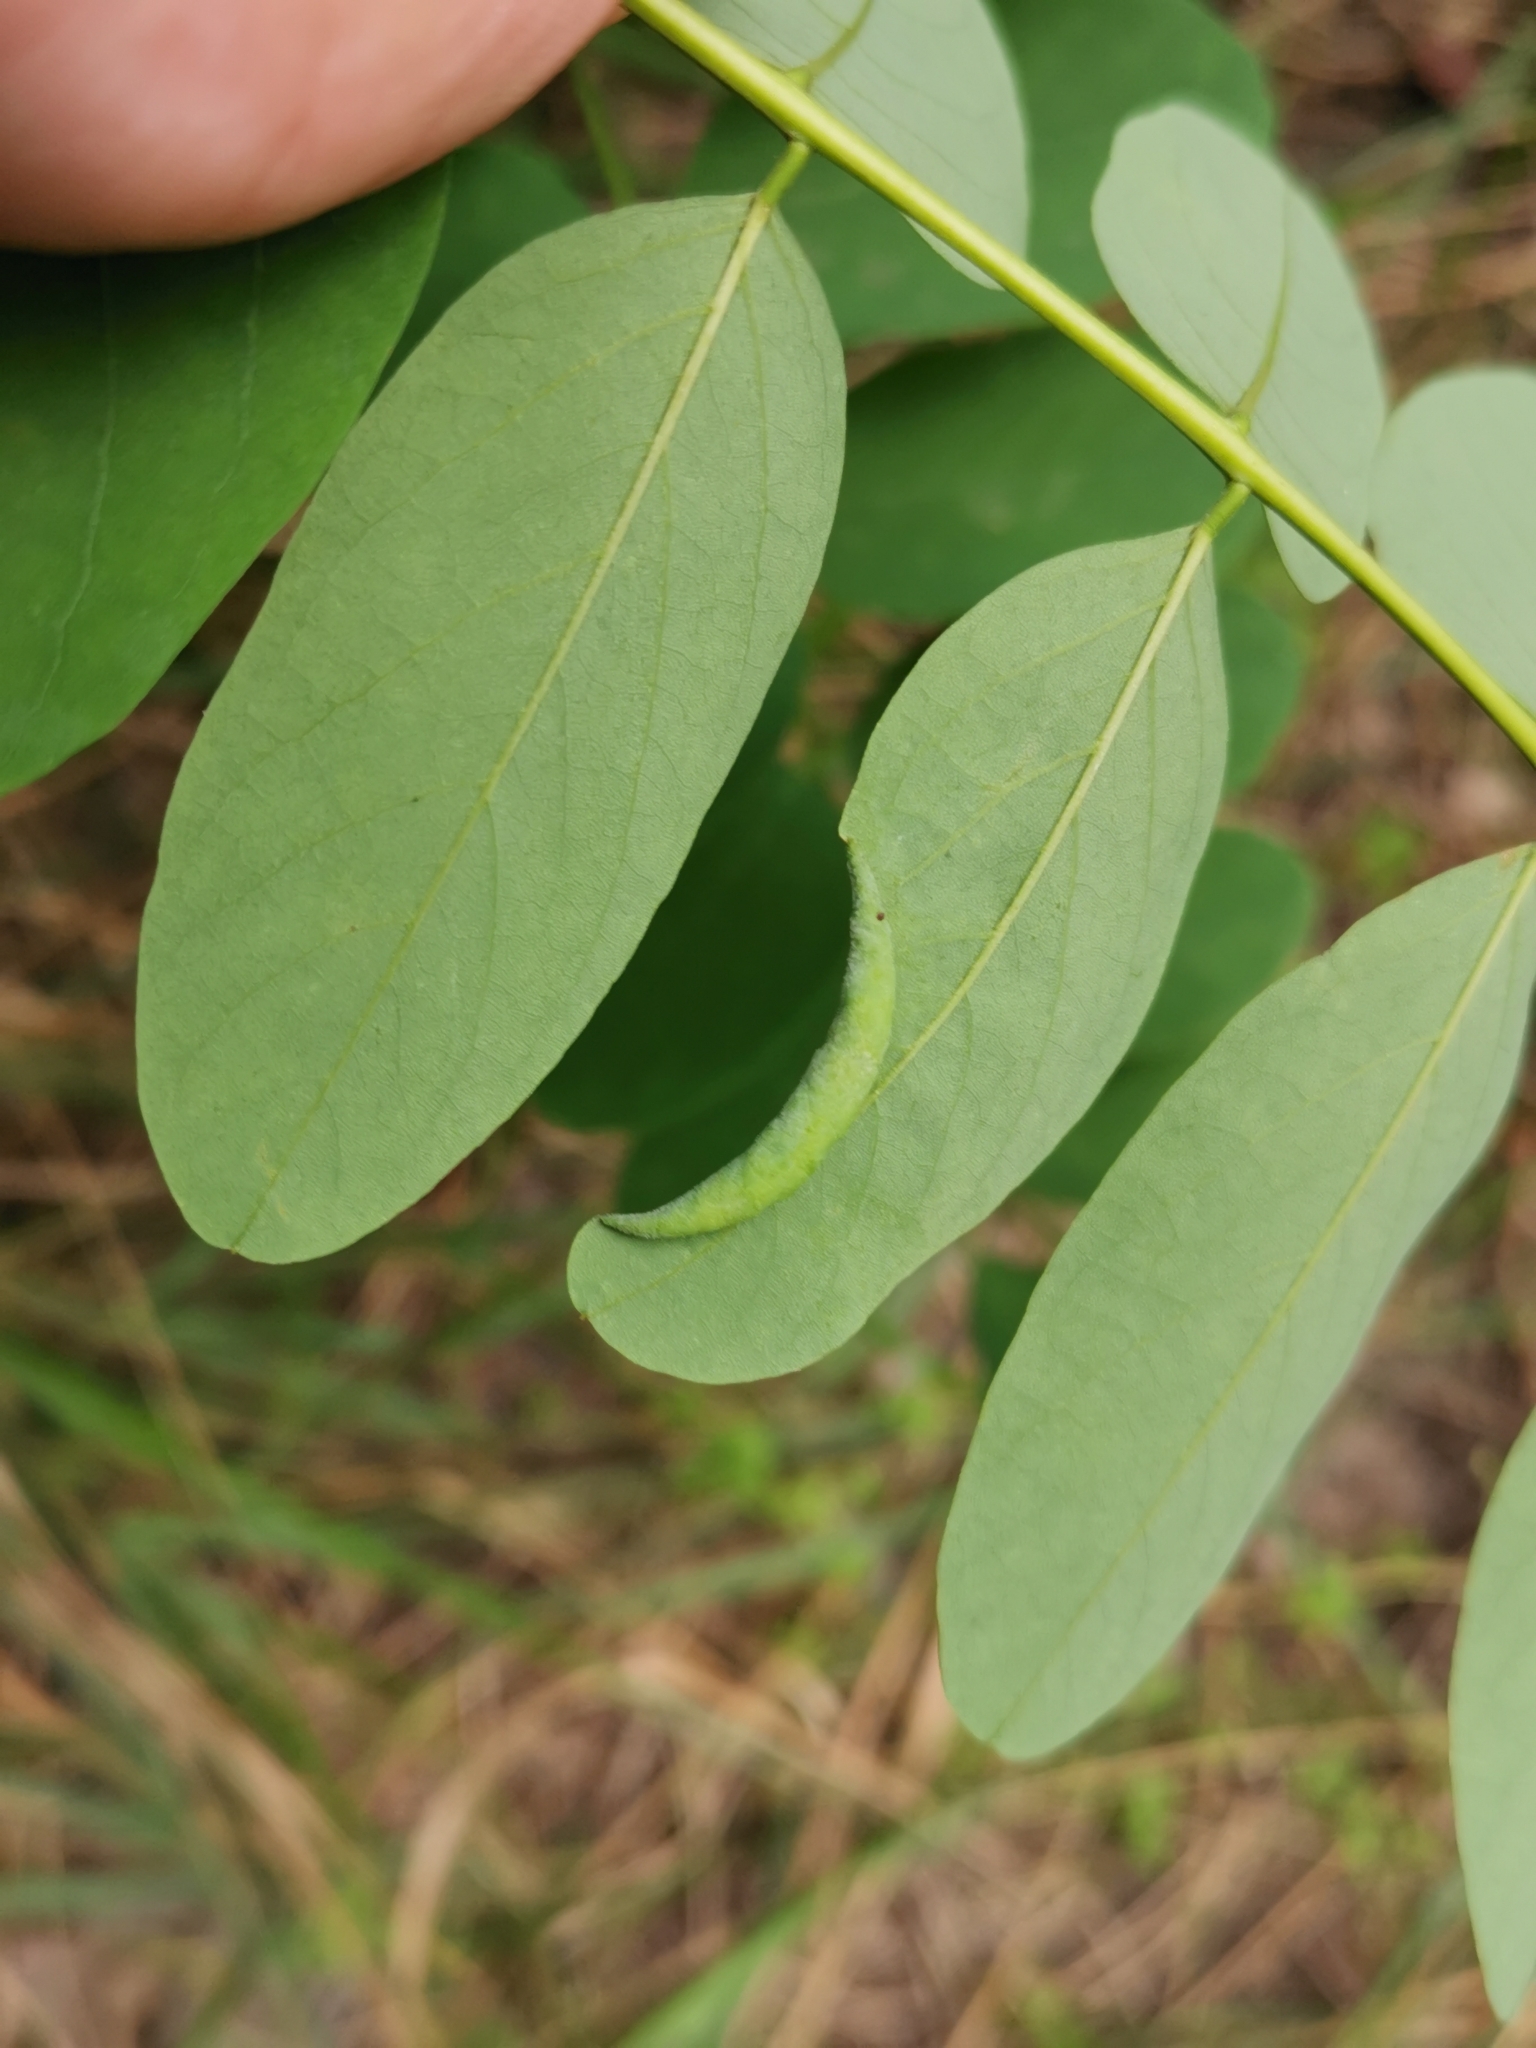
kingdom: Animalia
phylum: Arthropoda
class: Insecta
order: Diptera
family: Cecidomyiidae
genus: Obolodiplosis
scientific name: Obolodiplosis robiniae
